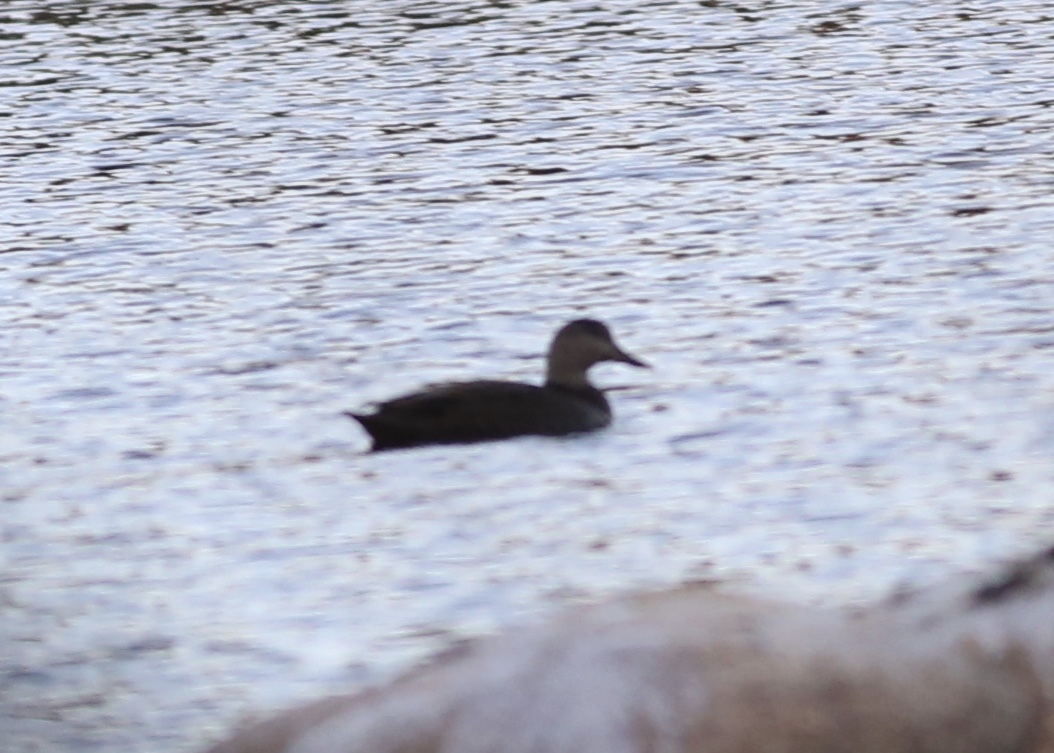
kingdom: Animalia
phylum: Chordata
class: Aves
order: Anseriformes
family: Anatidae
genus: Anas
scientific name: Anas rubripes
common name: American black duck
